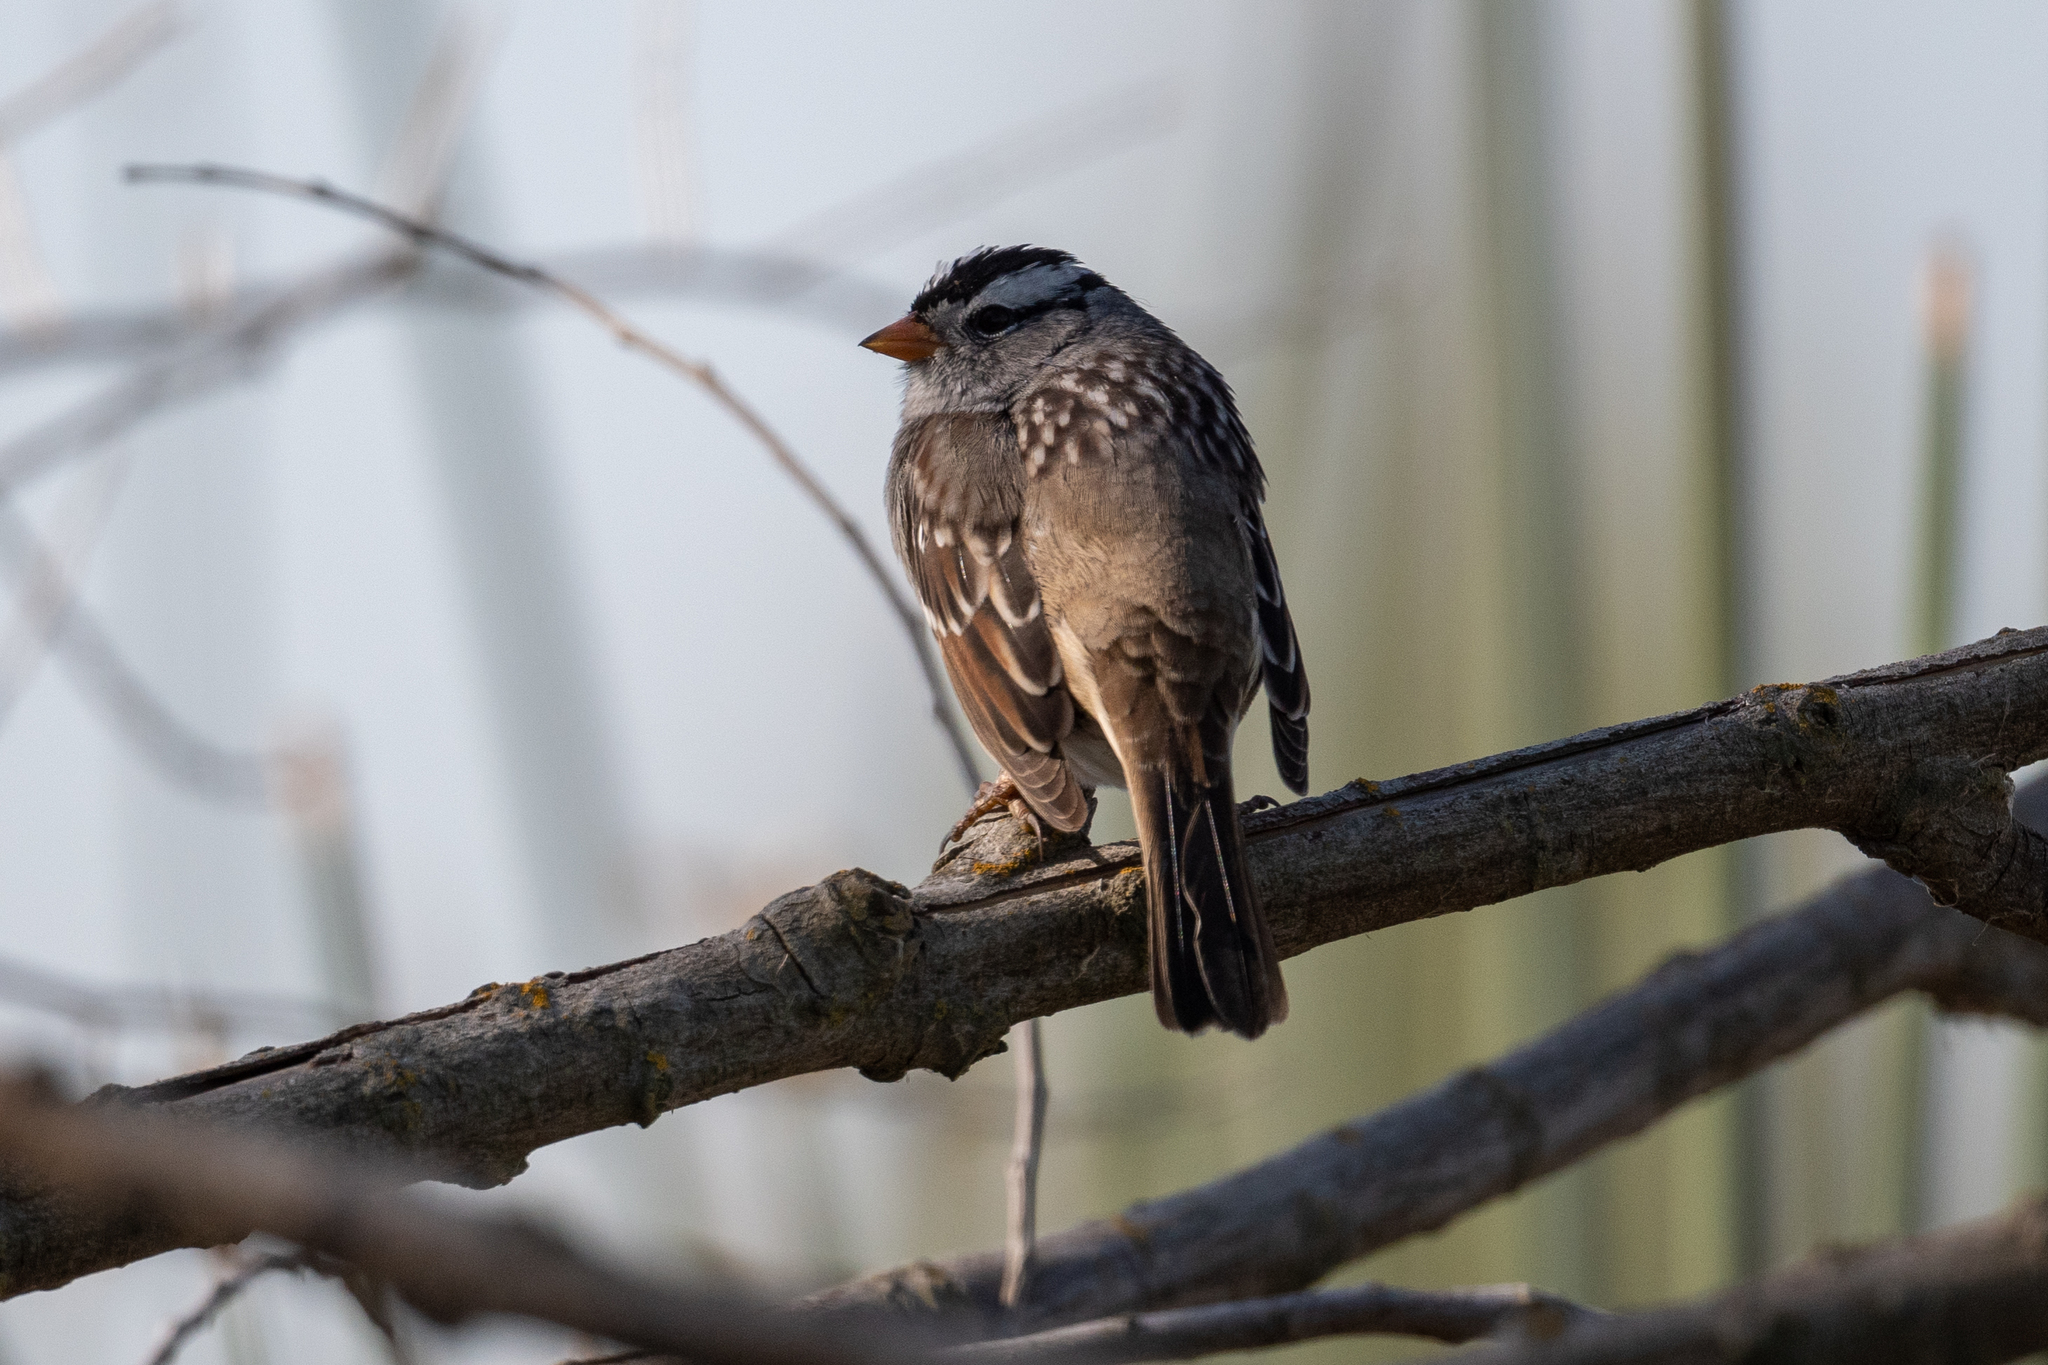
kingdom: Animalia
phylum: Chordata
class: Aves
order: Passeriformes
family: Passerellidae
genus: Zonotrichia
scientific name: Zonotrichia leucophrys
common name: White-crowned sparrow
